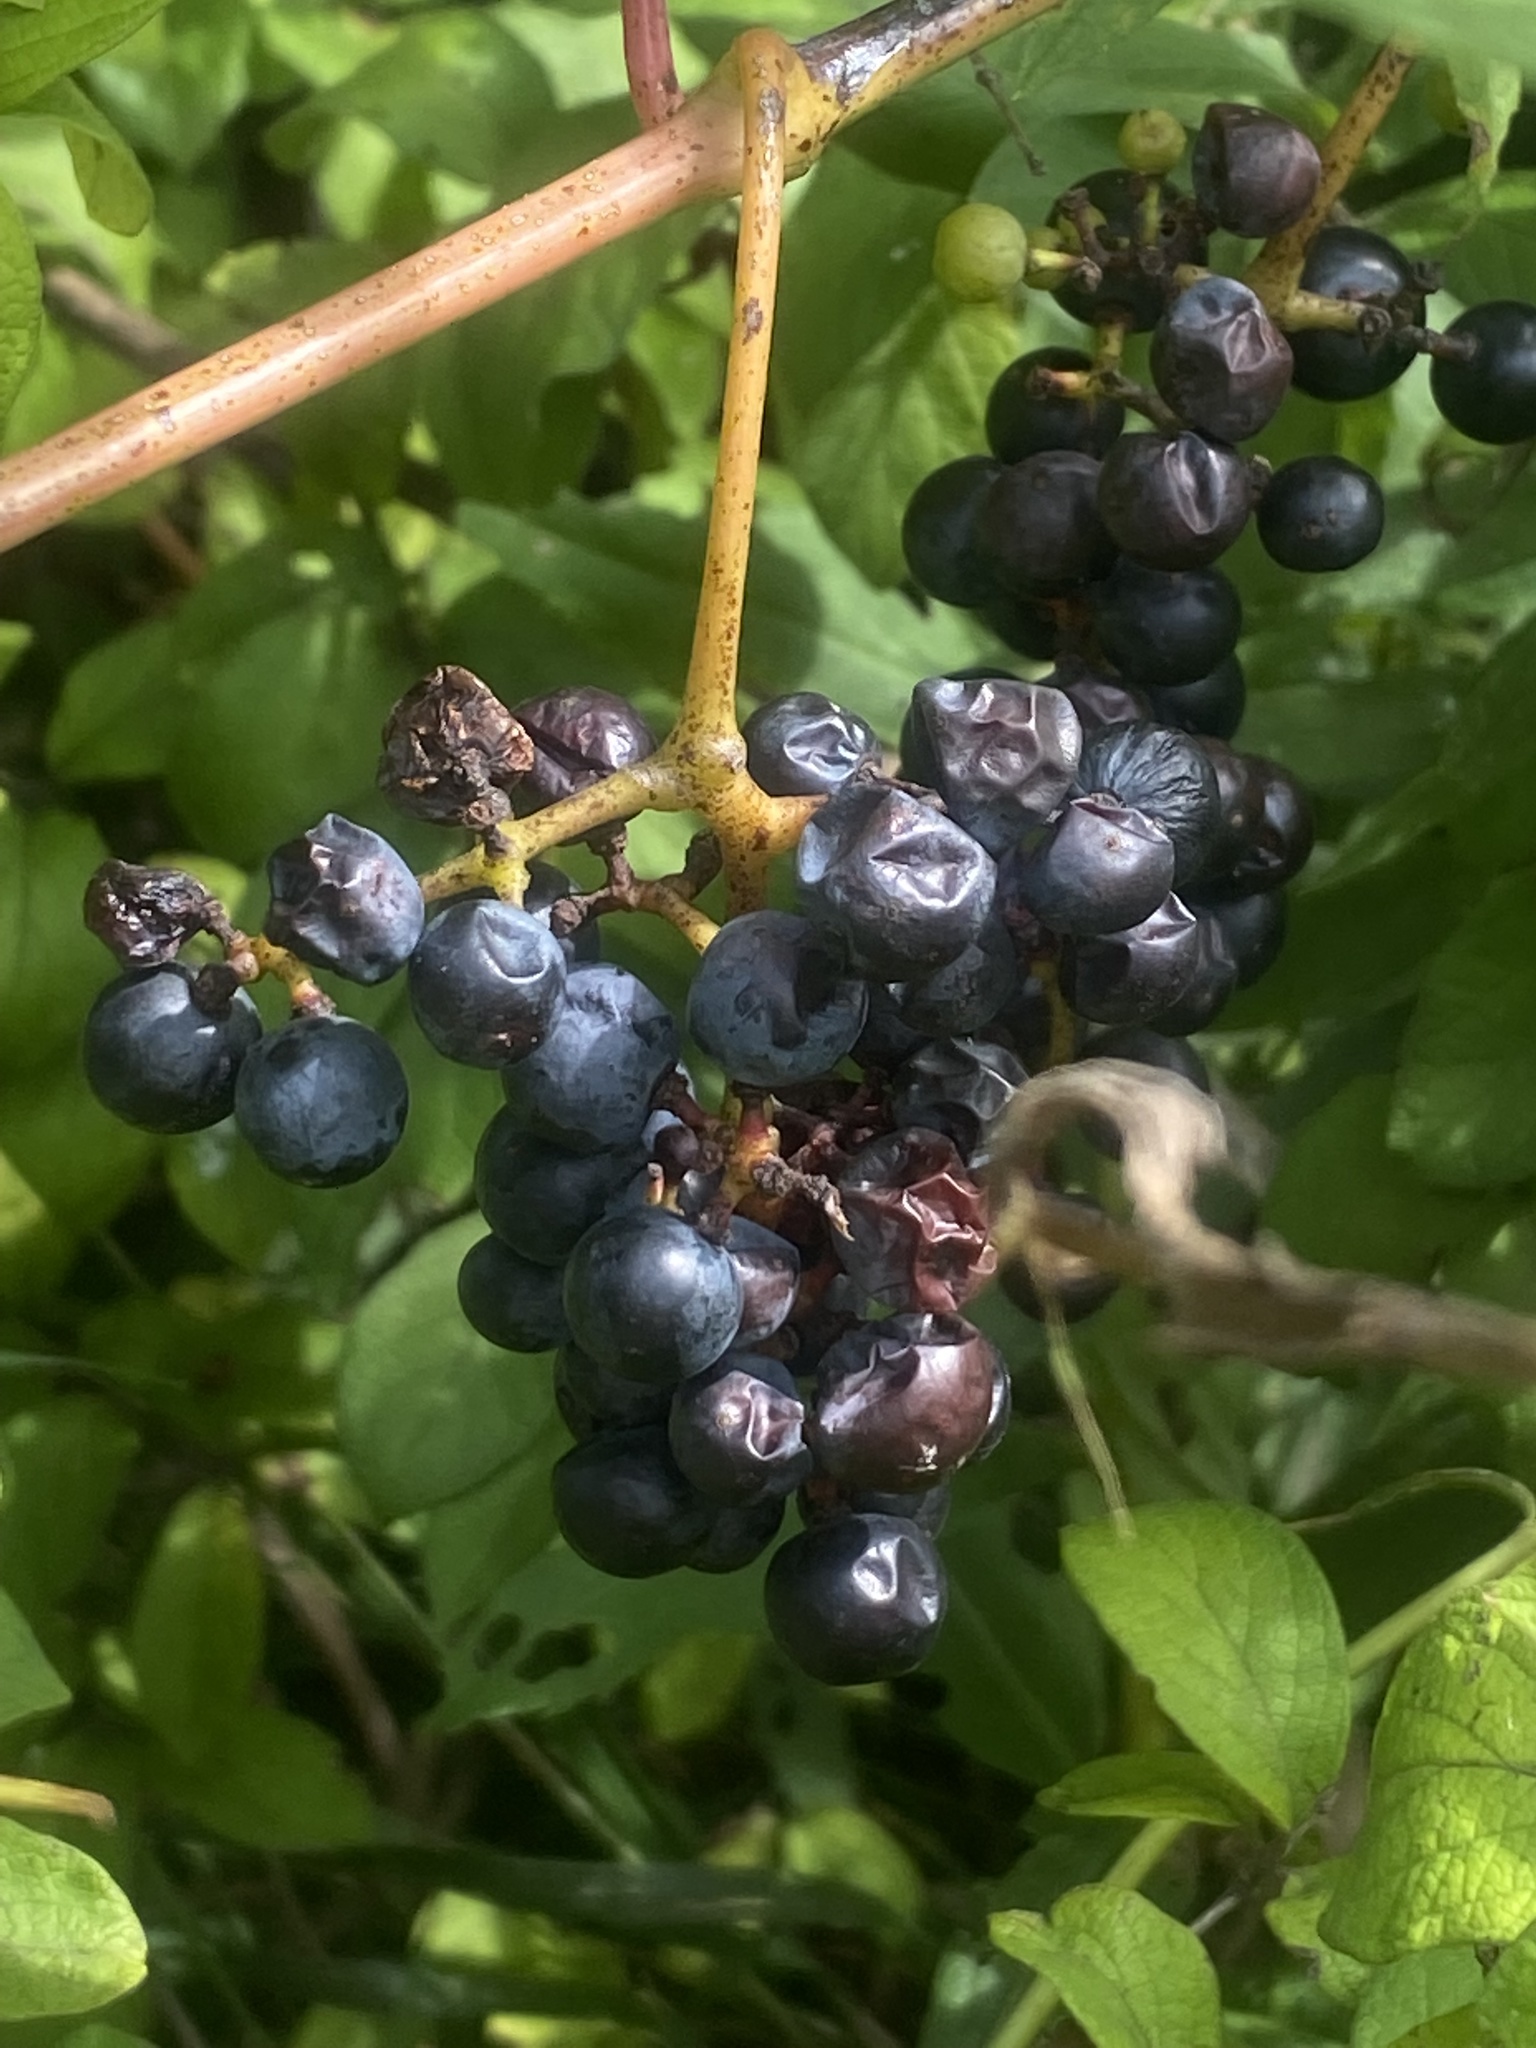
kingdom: Plantae
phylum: Tracheophyta
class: Magnoliopsida
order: Vitales
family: Vitaceae
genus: Vitis
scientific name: Vitis riparia
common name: Frost grape
